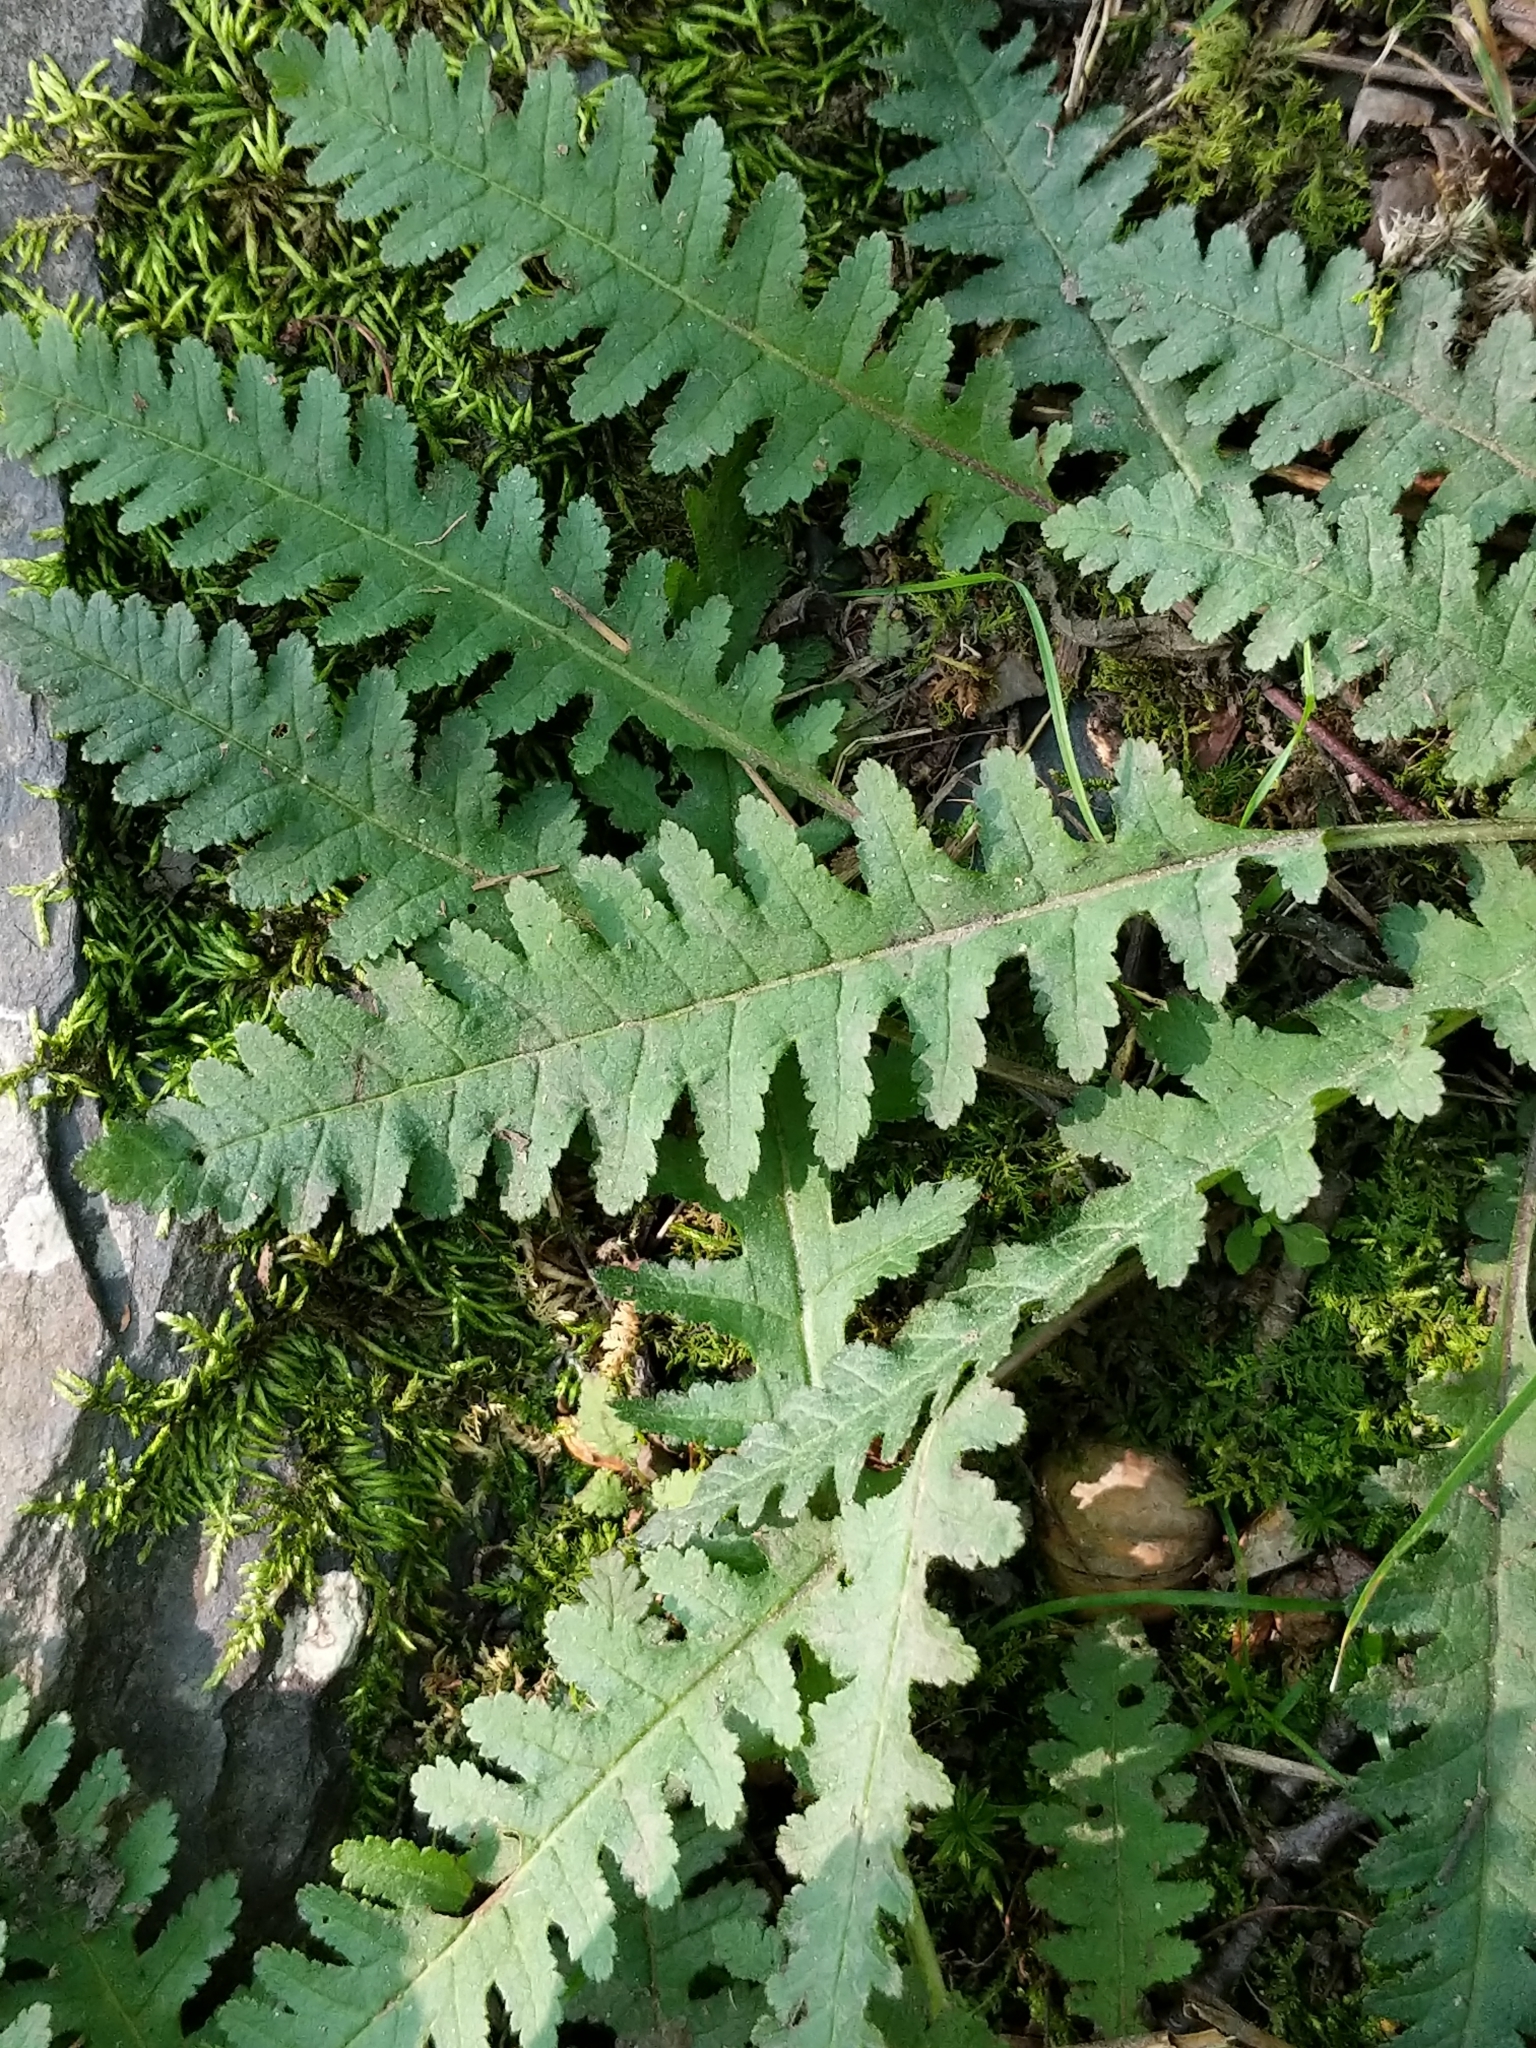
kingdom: Plantae
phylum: Tracheophyta
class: Magnoliopsida
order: Lamiales
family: Orobanchaceae
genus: Pedicularis
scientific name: Pedicularis canadensis
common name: Early lousewort
